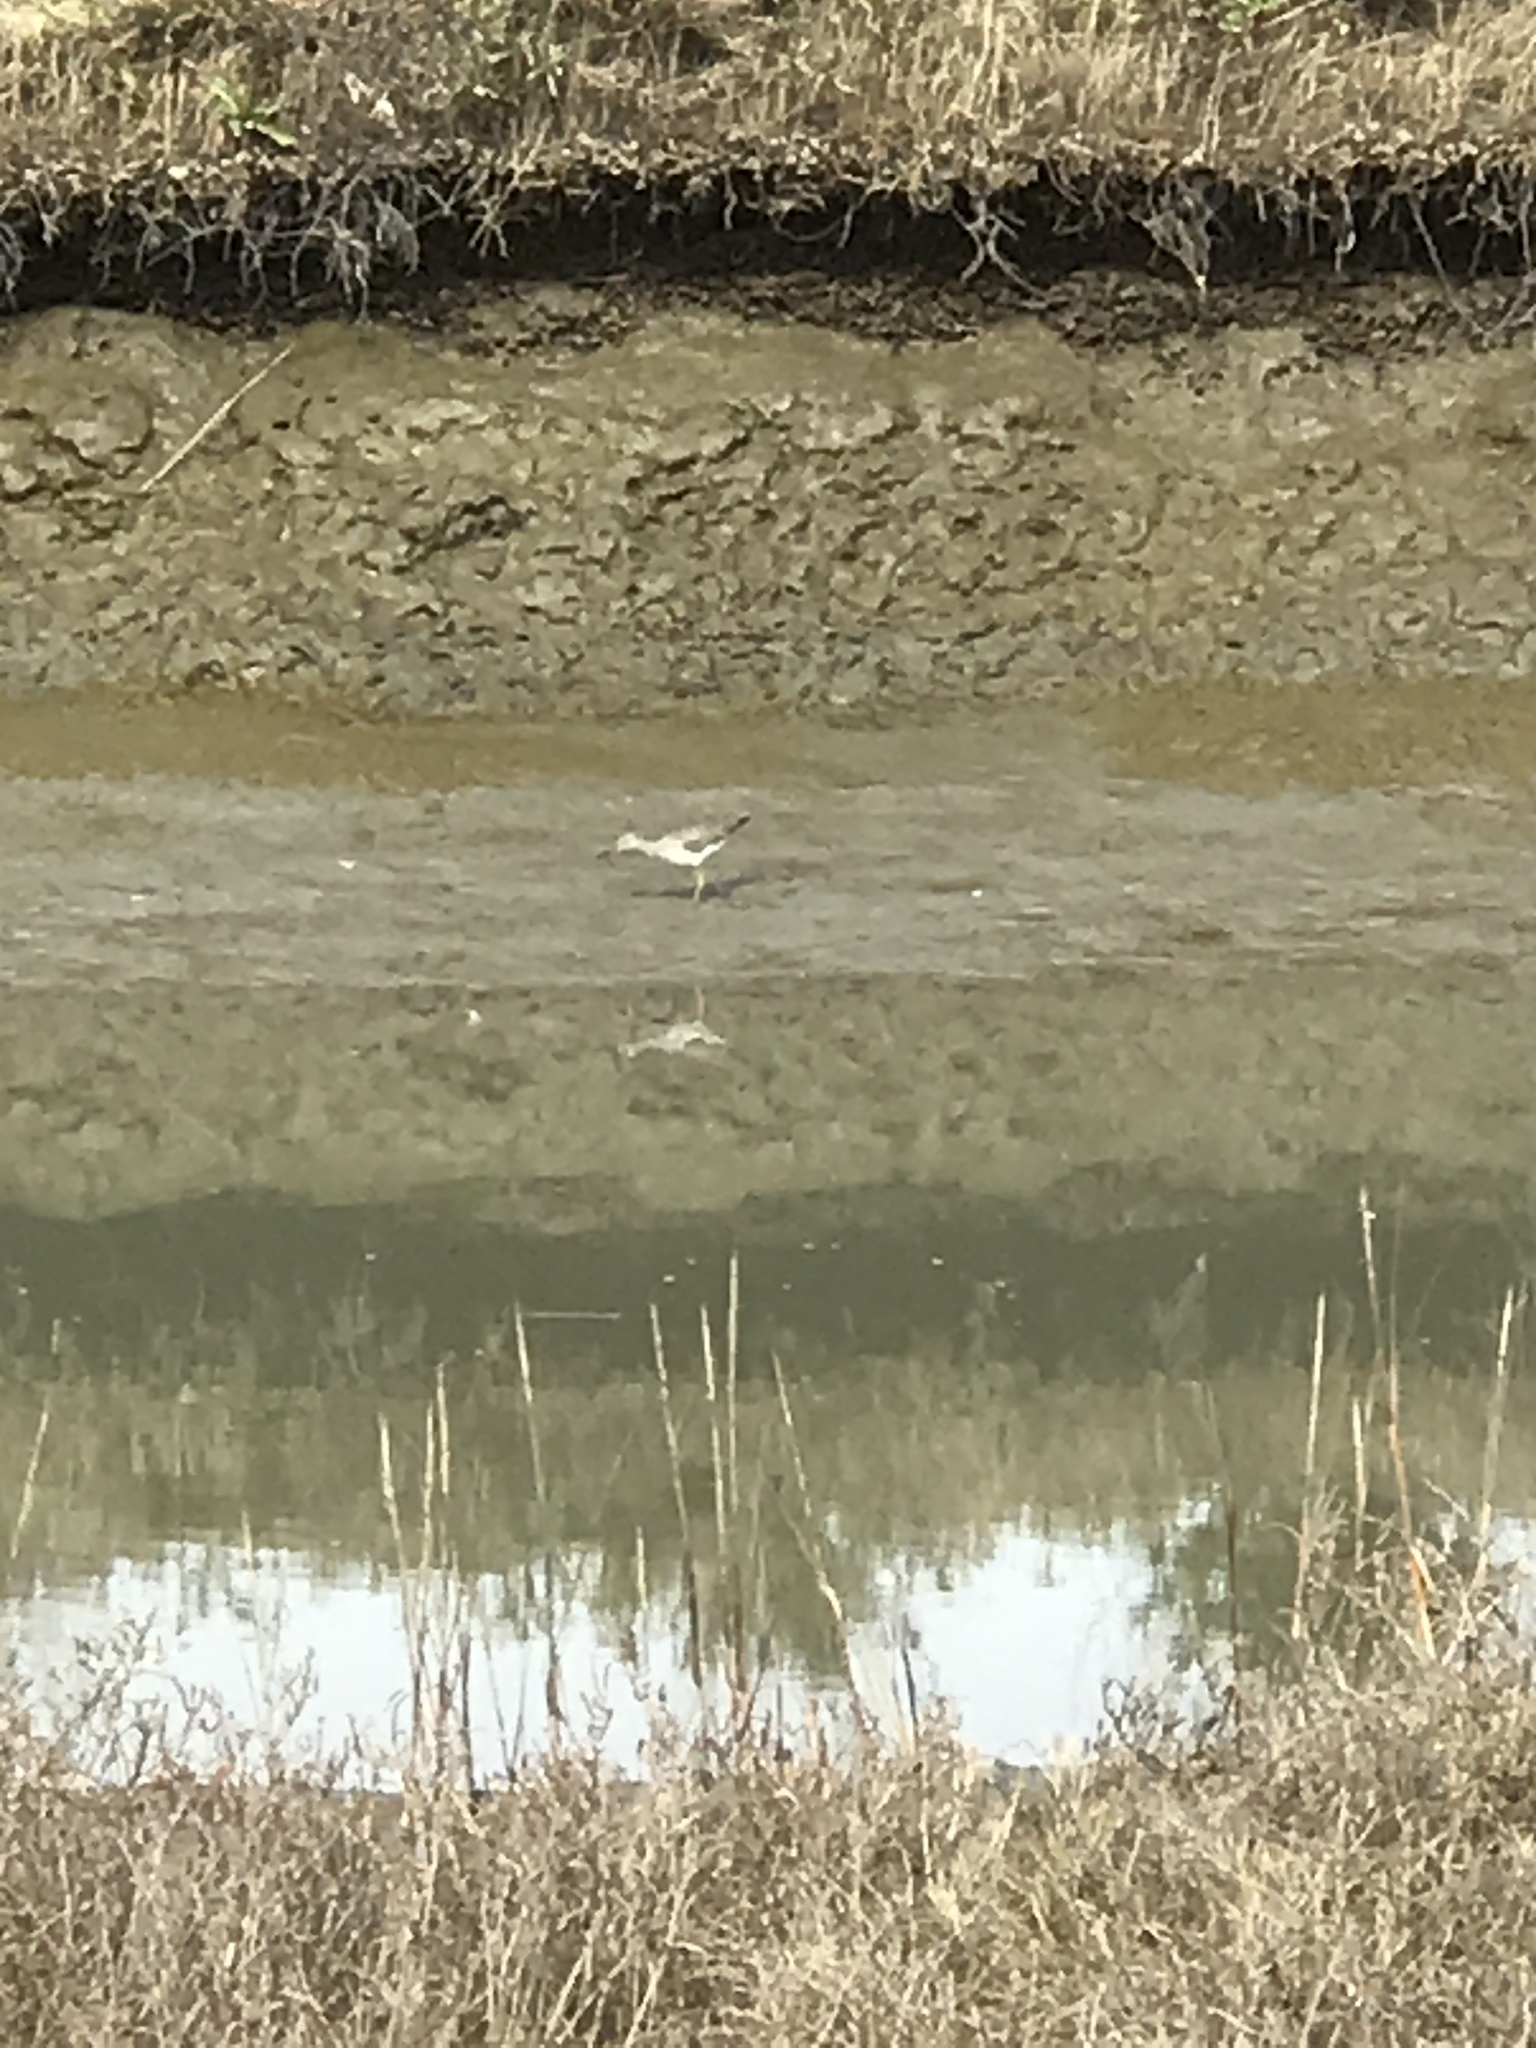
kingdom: Animalia
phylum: Chordata
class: Aves
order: Charadriiformes
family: Scolopacidae
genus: Tringa
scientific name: Tringa melanoleuca
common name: Greater yellowlegs
